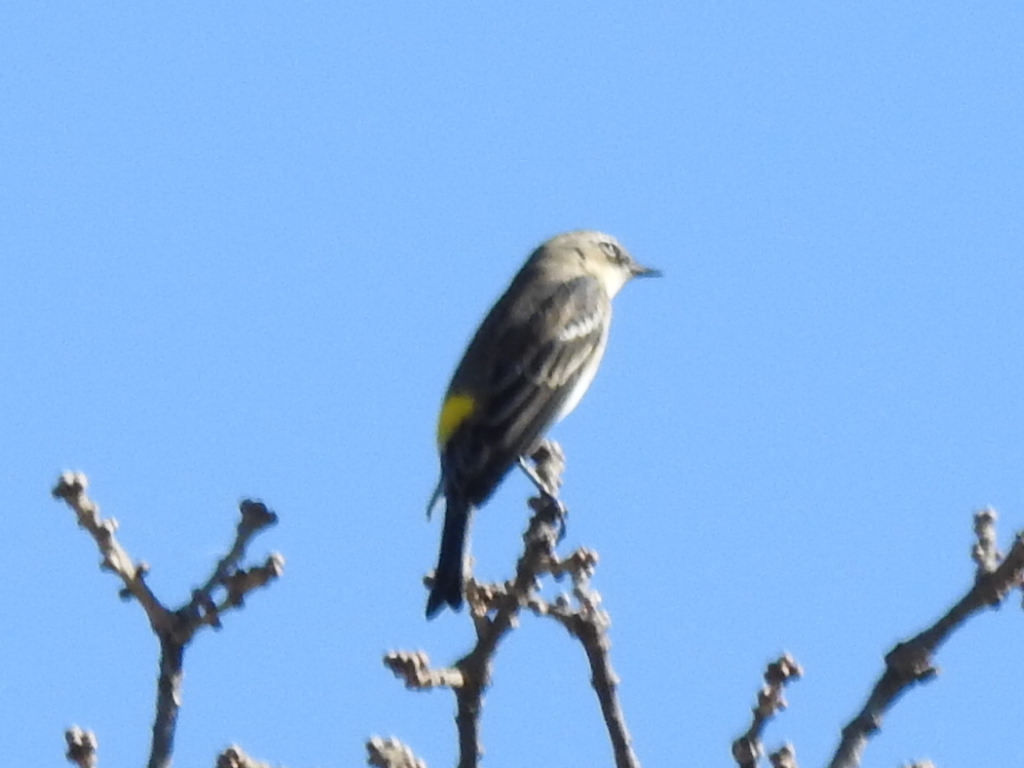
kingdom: Animalia
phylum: Chordata
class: Aves
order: Passeriformes
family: Parulidae
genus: Setophaga
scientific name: Setophaga coronata
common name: Myrtle warbler
